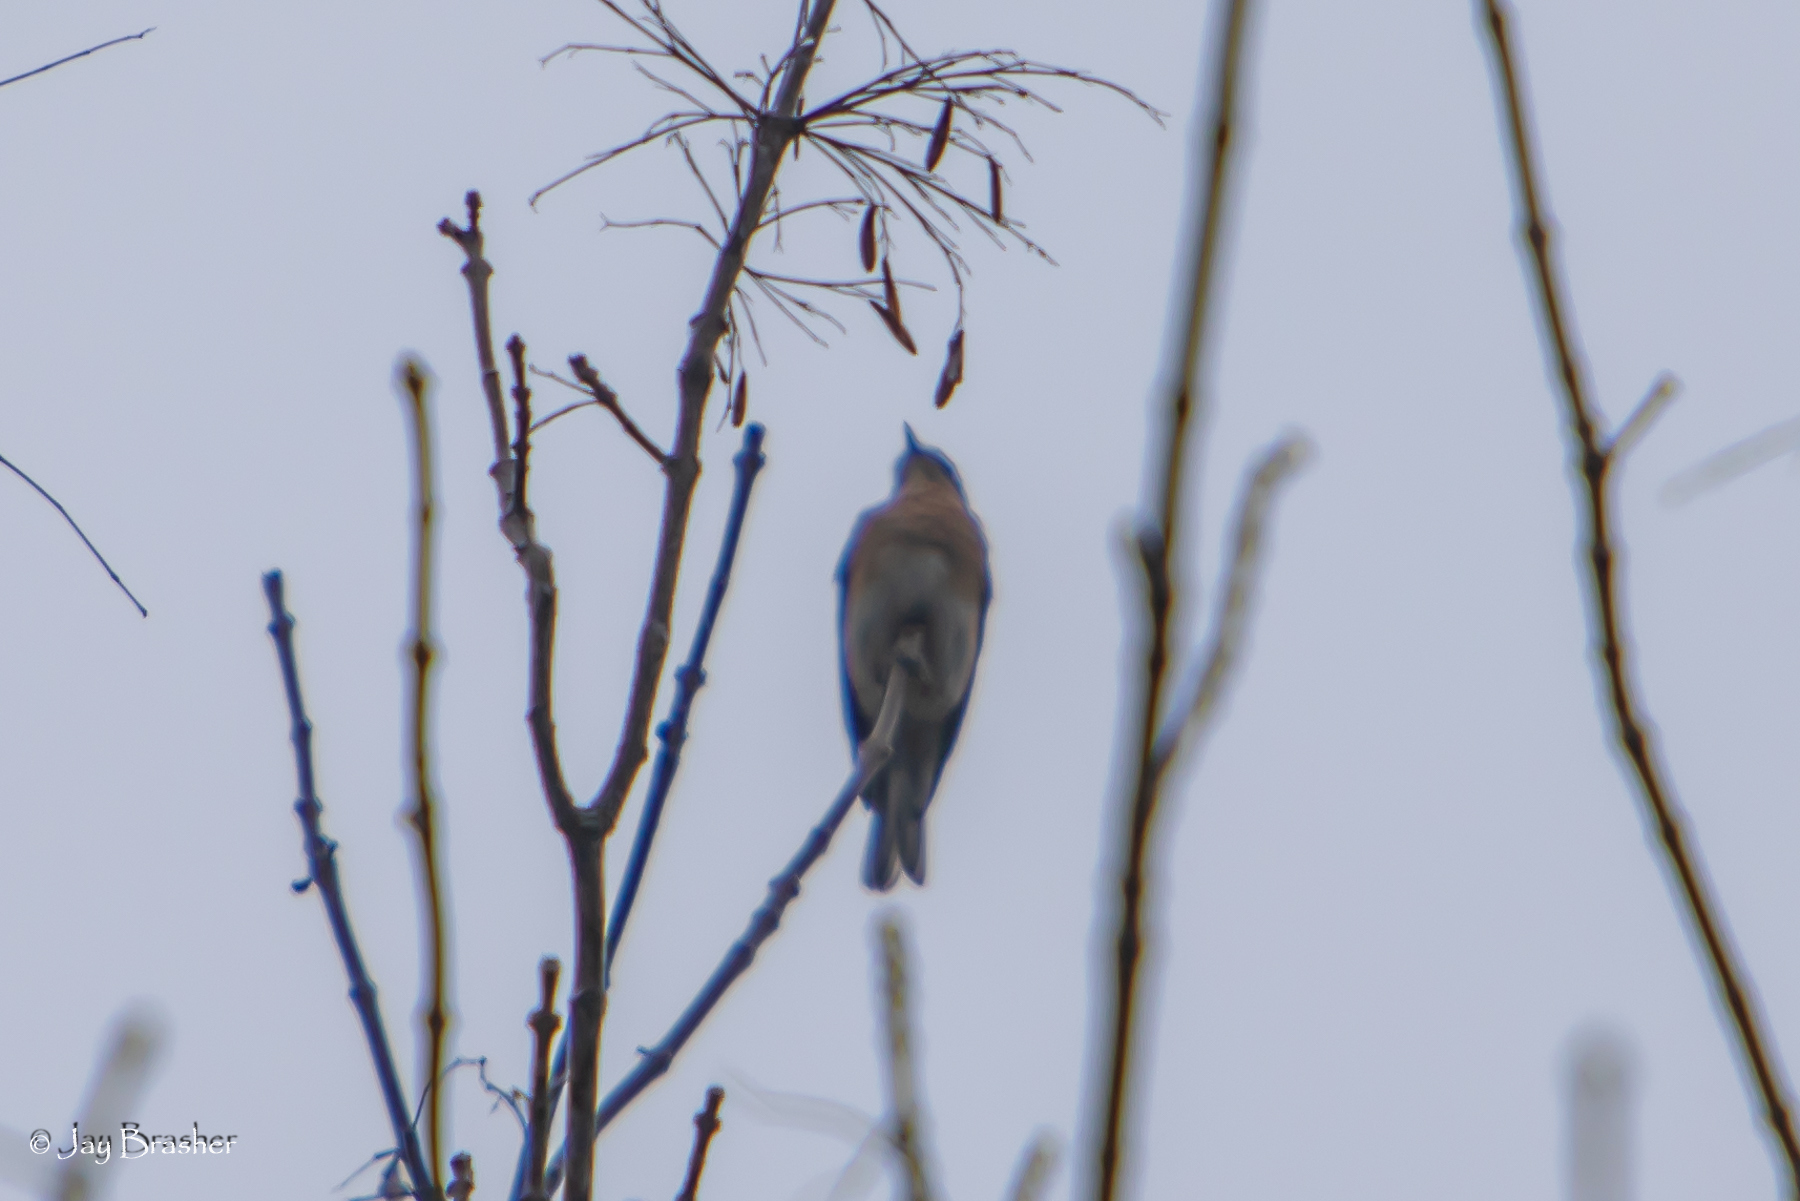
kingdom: Animalia
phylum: Chordata
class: Aves
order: Passeriformes
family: Turdidae
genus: Sialia
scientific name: Sialia sialis
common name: Eastern bluebird
